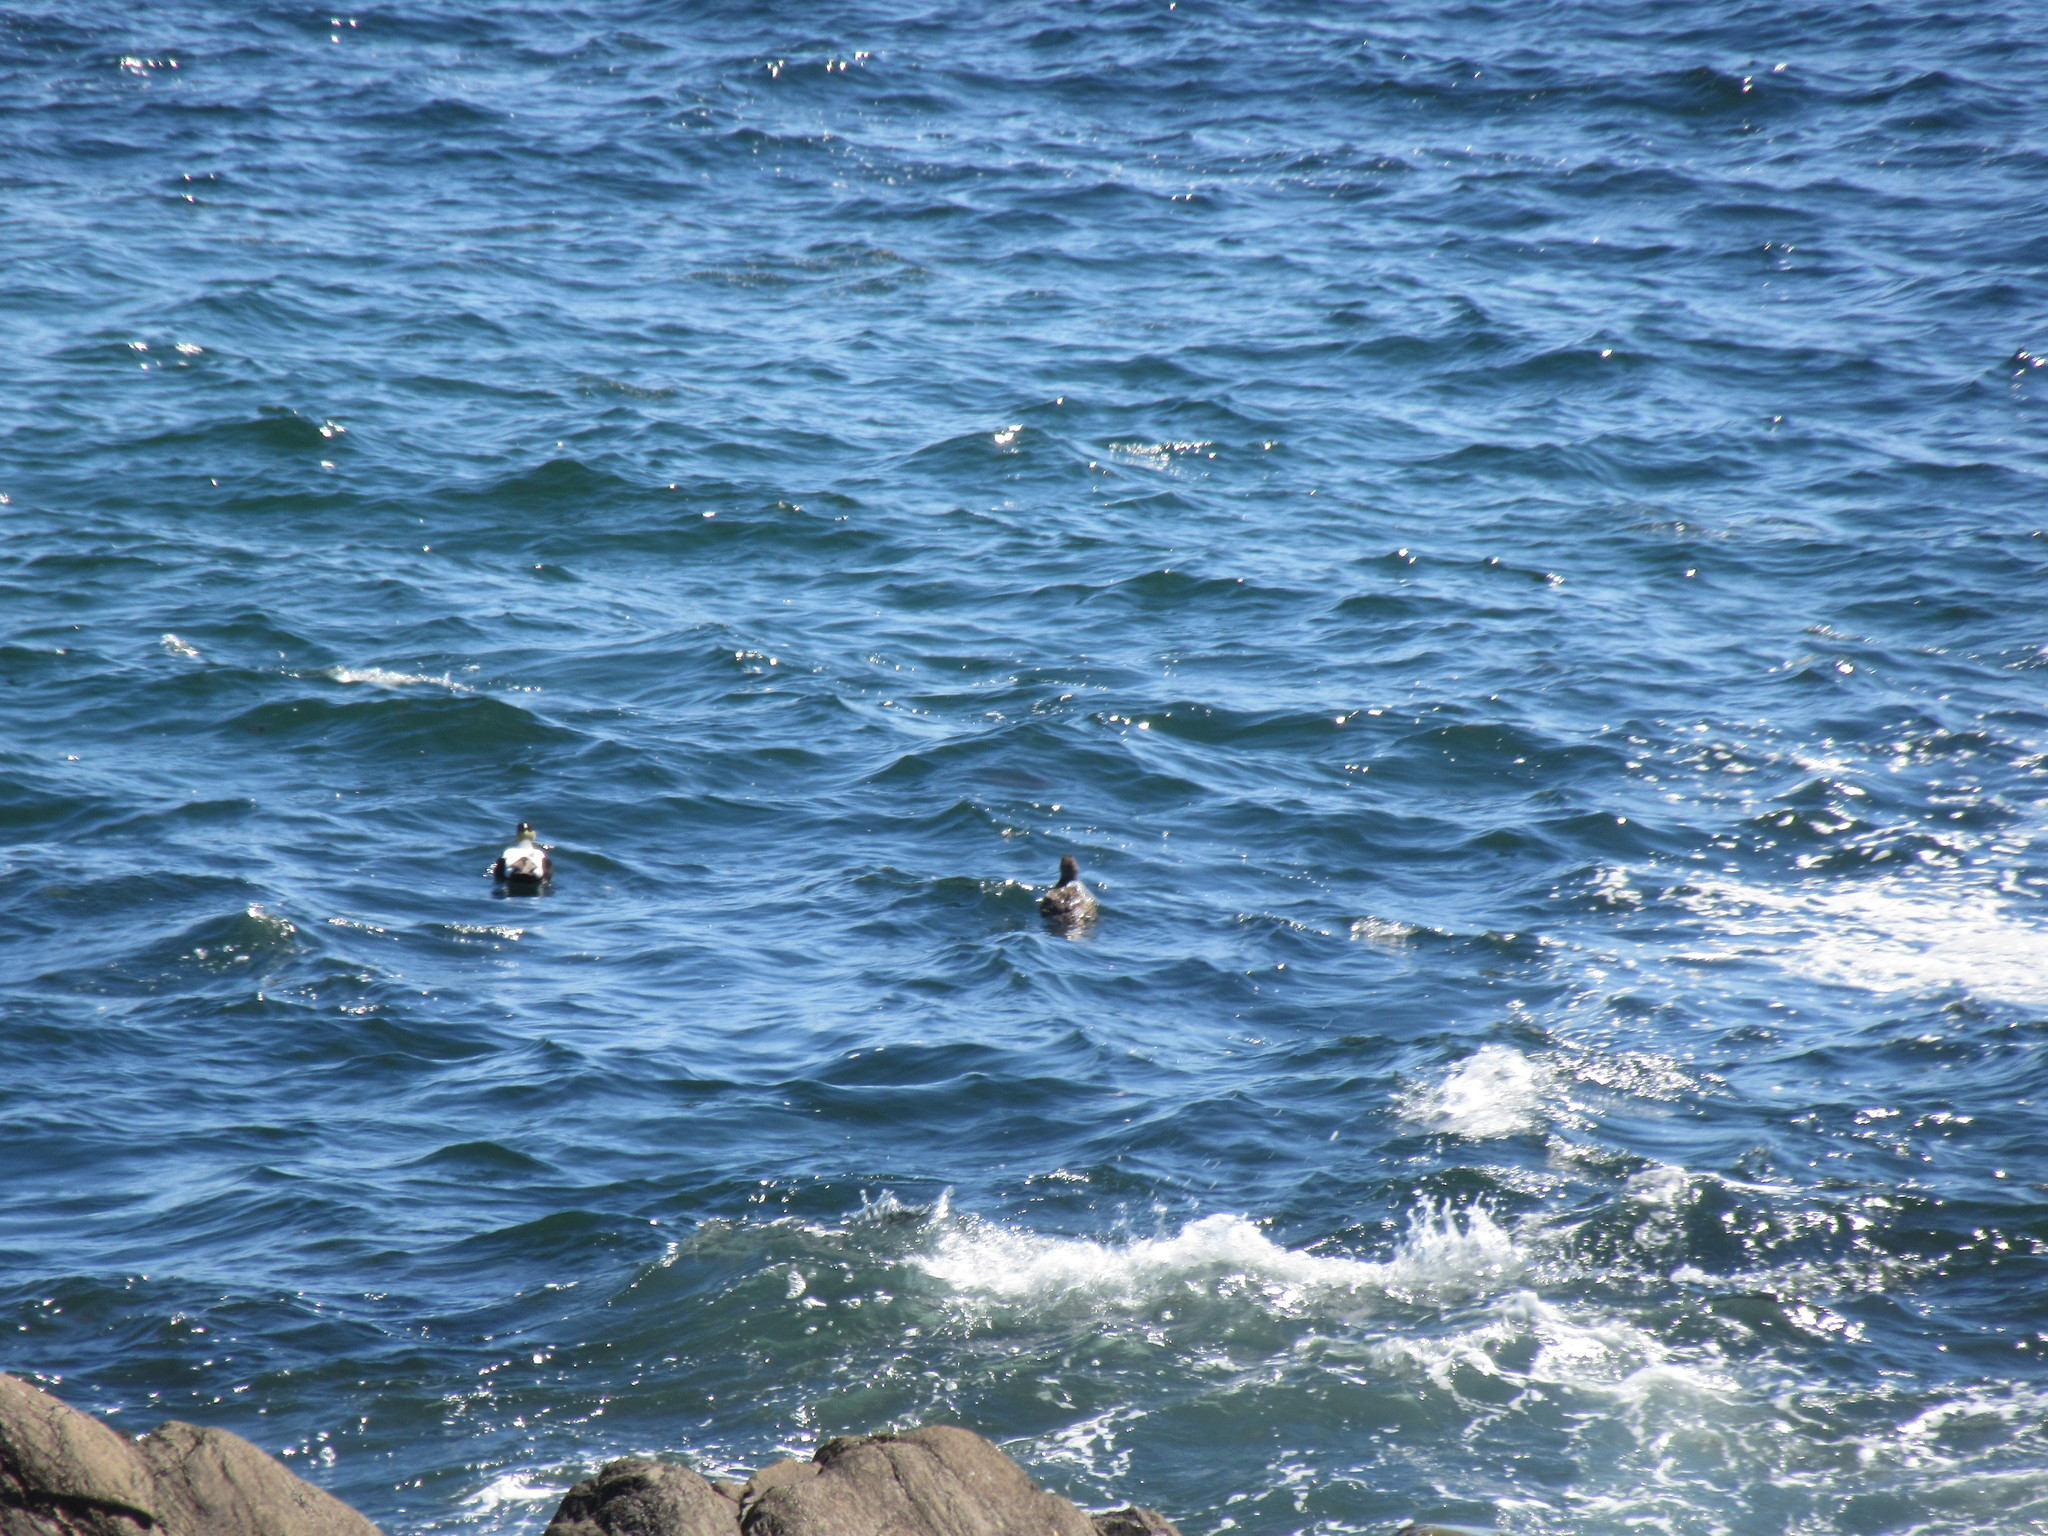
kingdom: Animalia
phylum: Chordata
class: Aves
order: Anseriformes
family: Anatidae
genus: Somateria
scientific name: Somateria mollissima
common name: Common eider
